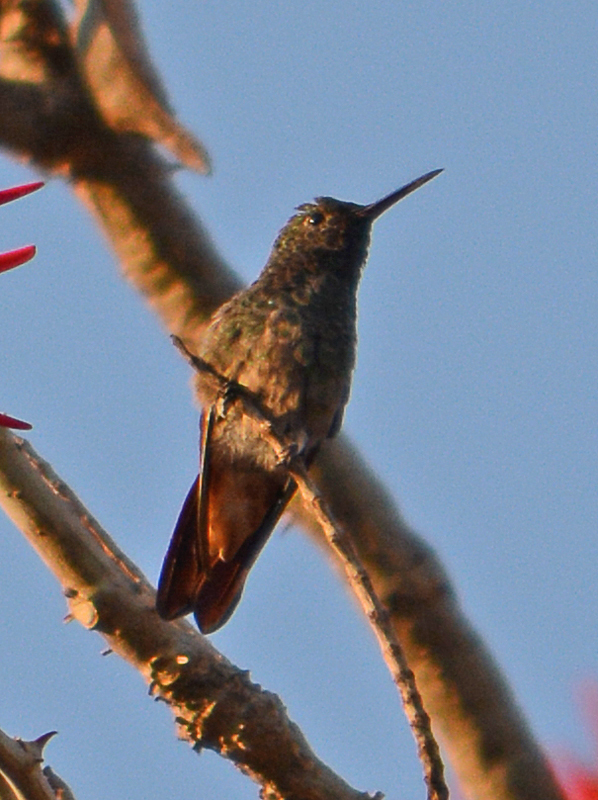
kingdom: Animalia
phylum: Chordata
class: Aves
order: Apodiformes
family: Trochilidae
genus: Saucerottia
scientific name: Saucerottia beryllina
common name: Berylline hummingbird
